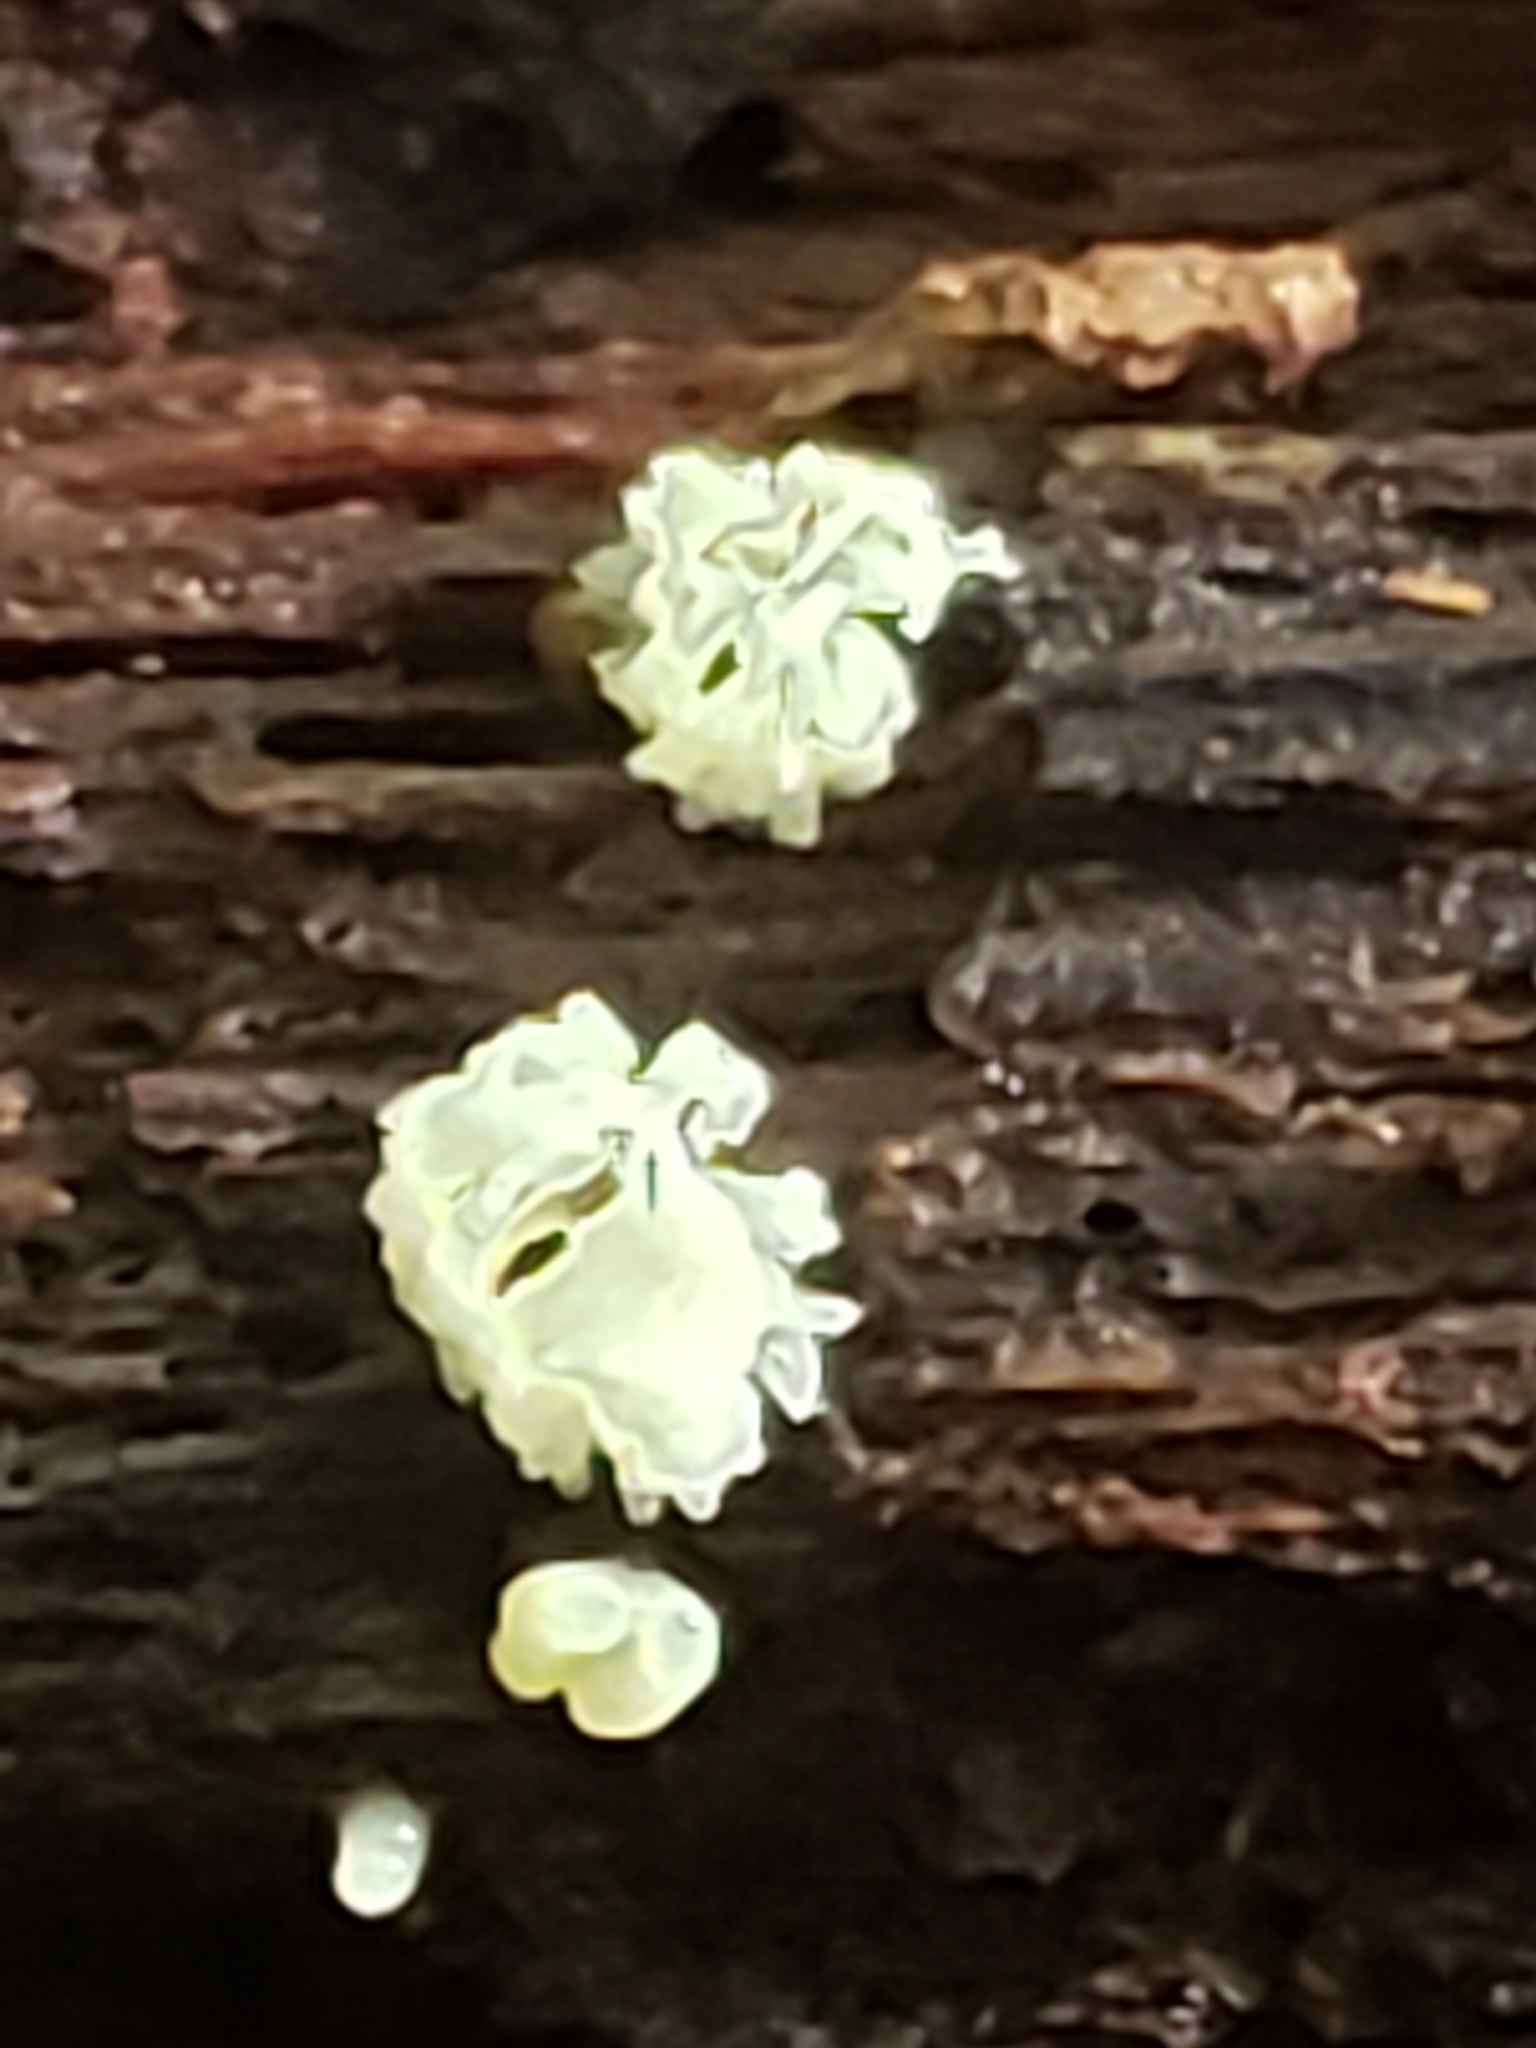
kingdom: Protozoa
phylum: Mycetozoa
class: Protosteliomycetes
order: Ceratiomyxales
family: Ceratiomyxaceae
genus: Ceratiomyxa
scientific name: Ceratiomyxa fruticulosa
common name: Honeycomb coral slime mold
